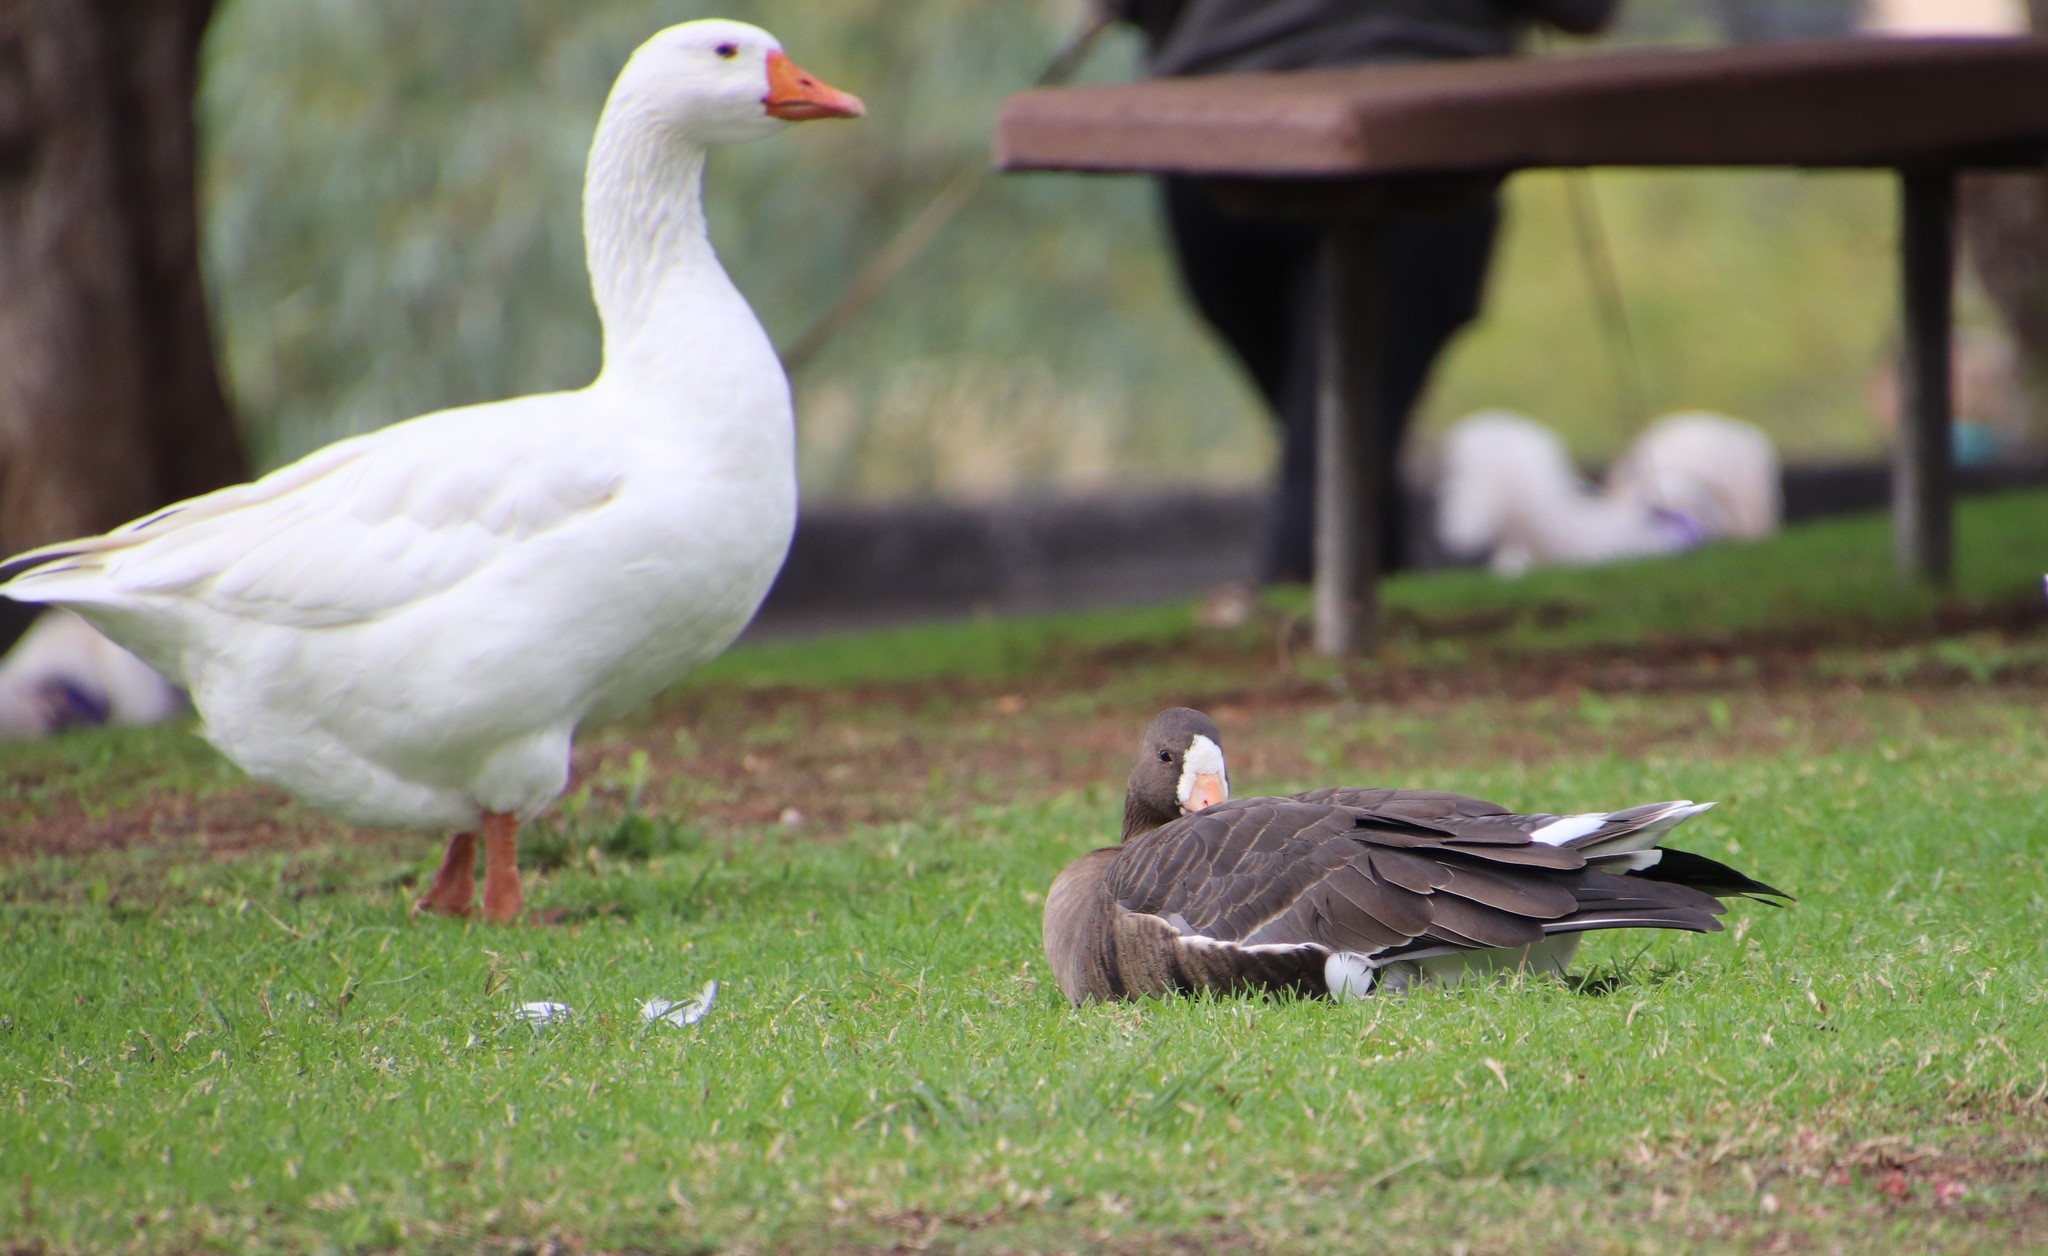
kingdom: Animalia
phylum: Chordata
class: Aves
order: Anseriformes
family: Anatidae
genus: Anser
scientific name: Anser albifrons
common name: Greater white-fronted goose
